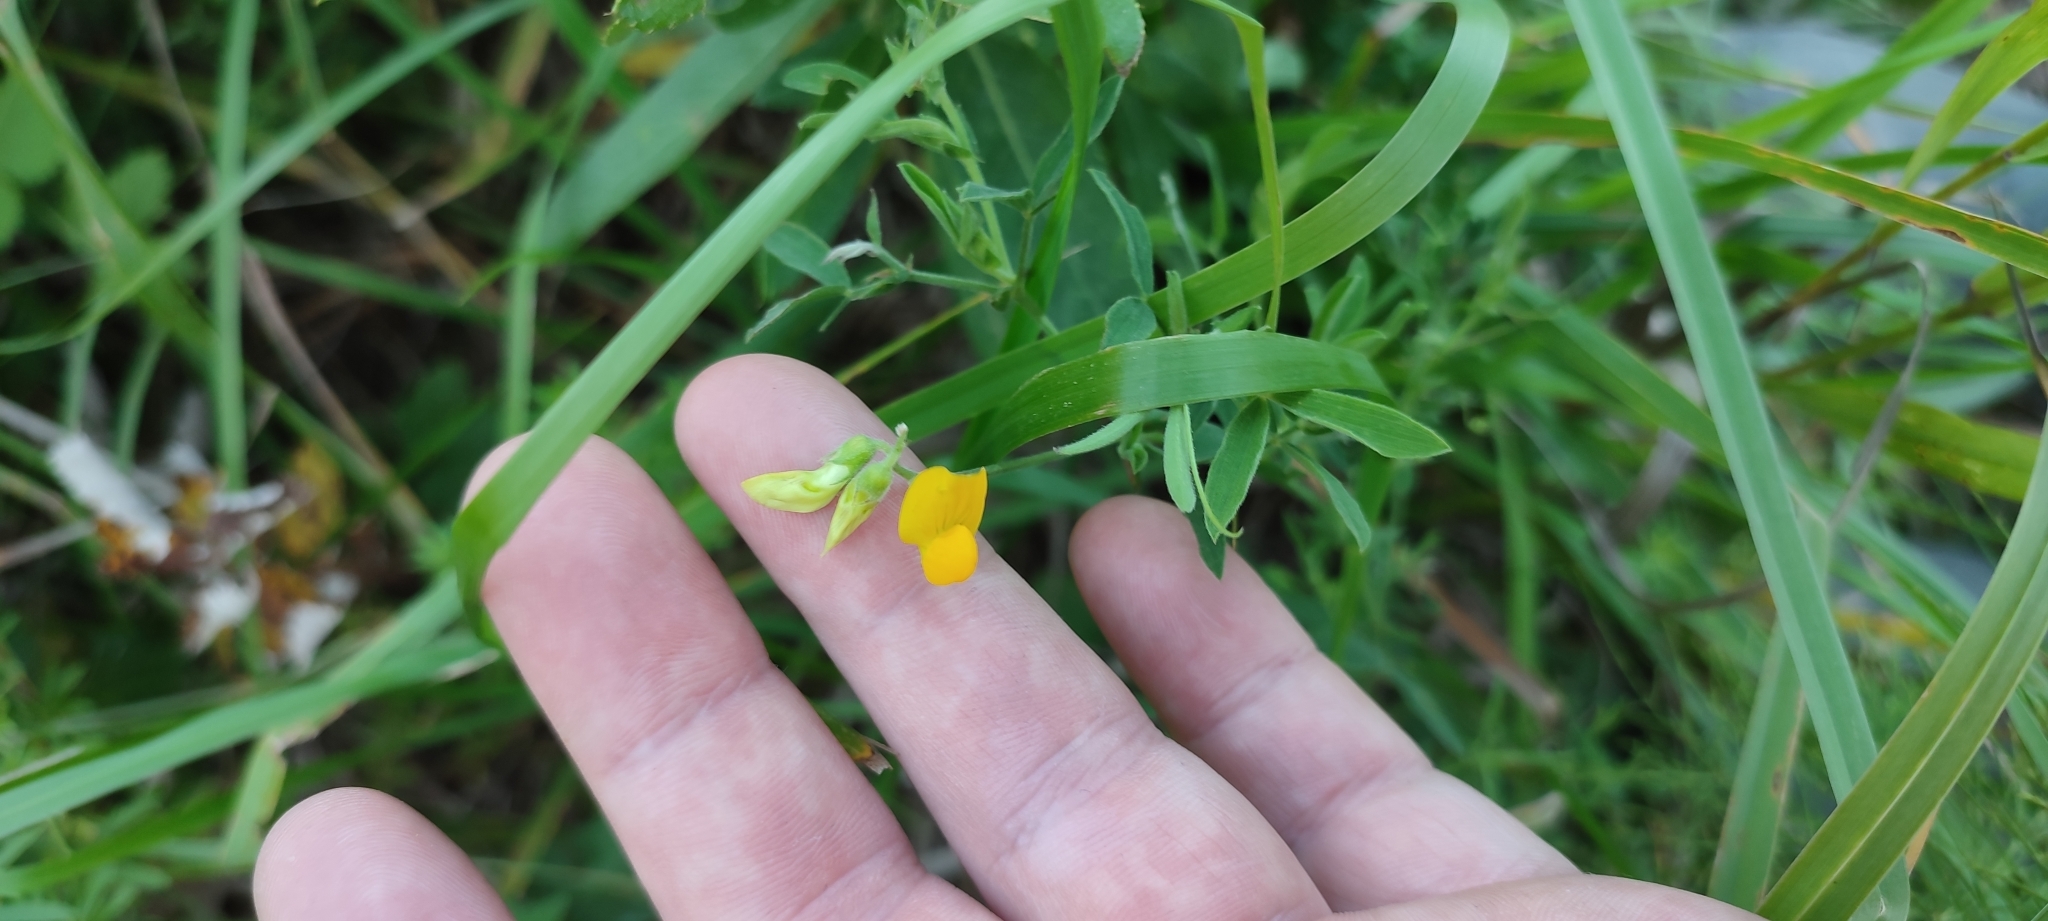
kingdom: Plantae
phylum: Tracheophyta
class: Magnoliopsida
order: Fabales
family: Fabaceae
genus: Lathyrus
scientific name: Lathyrus pratensis
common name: Meadow vetchling
